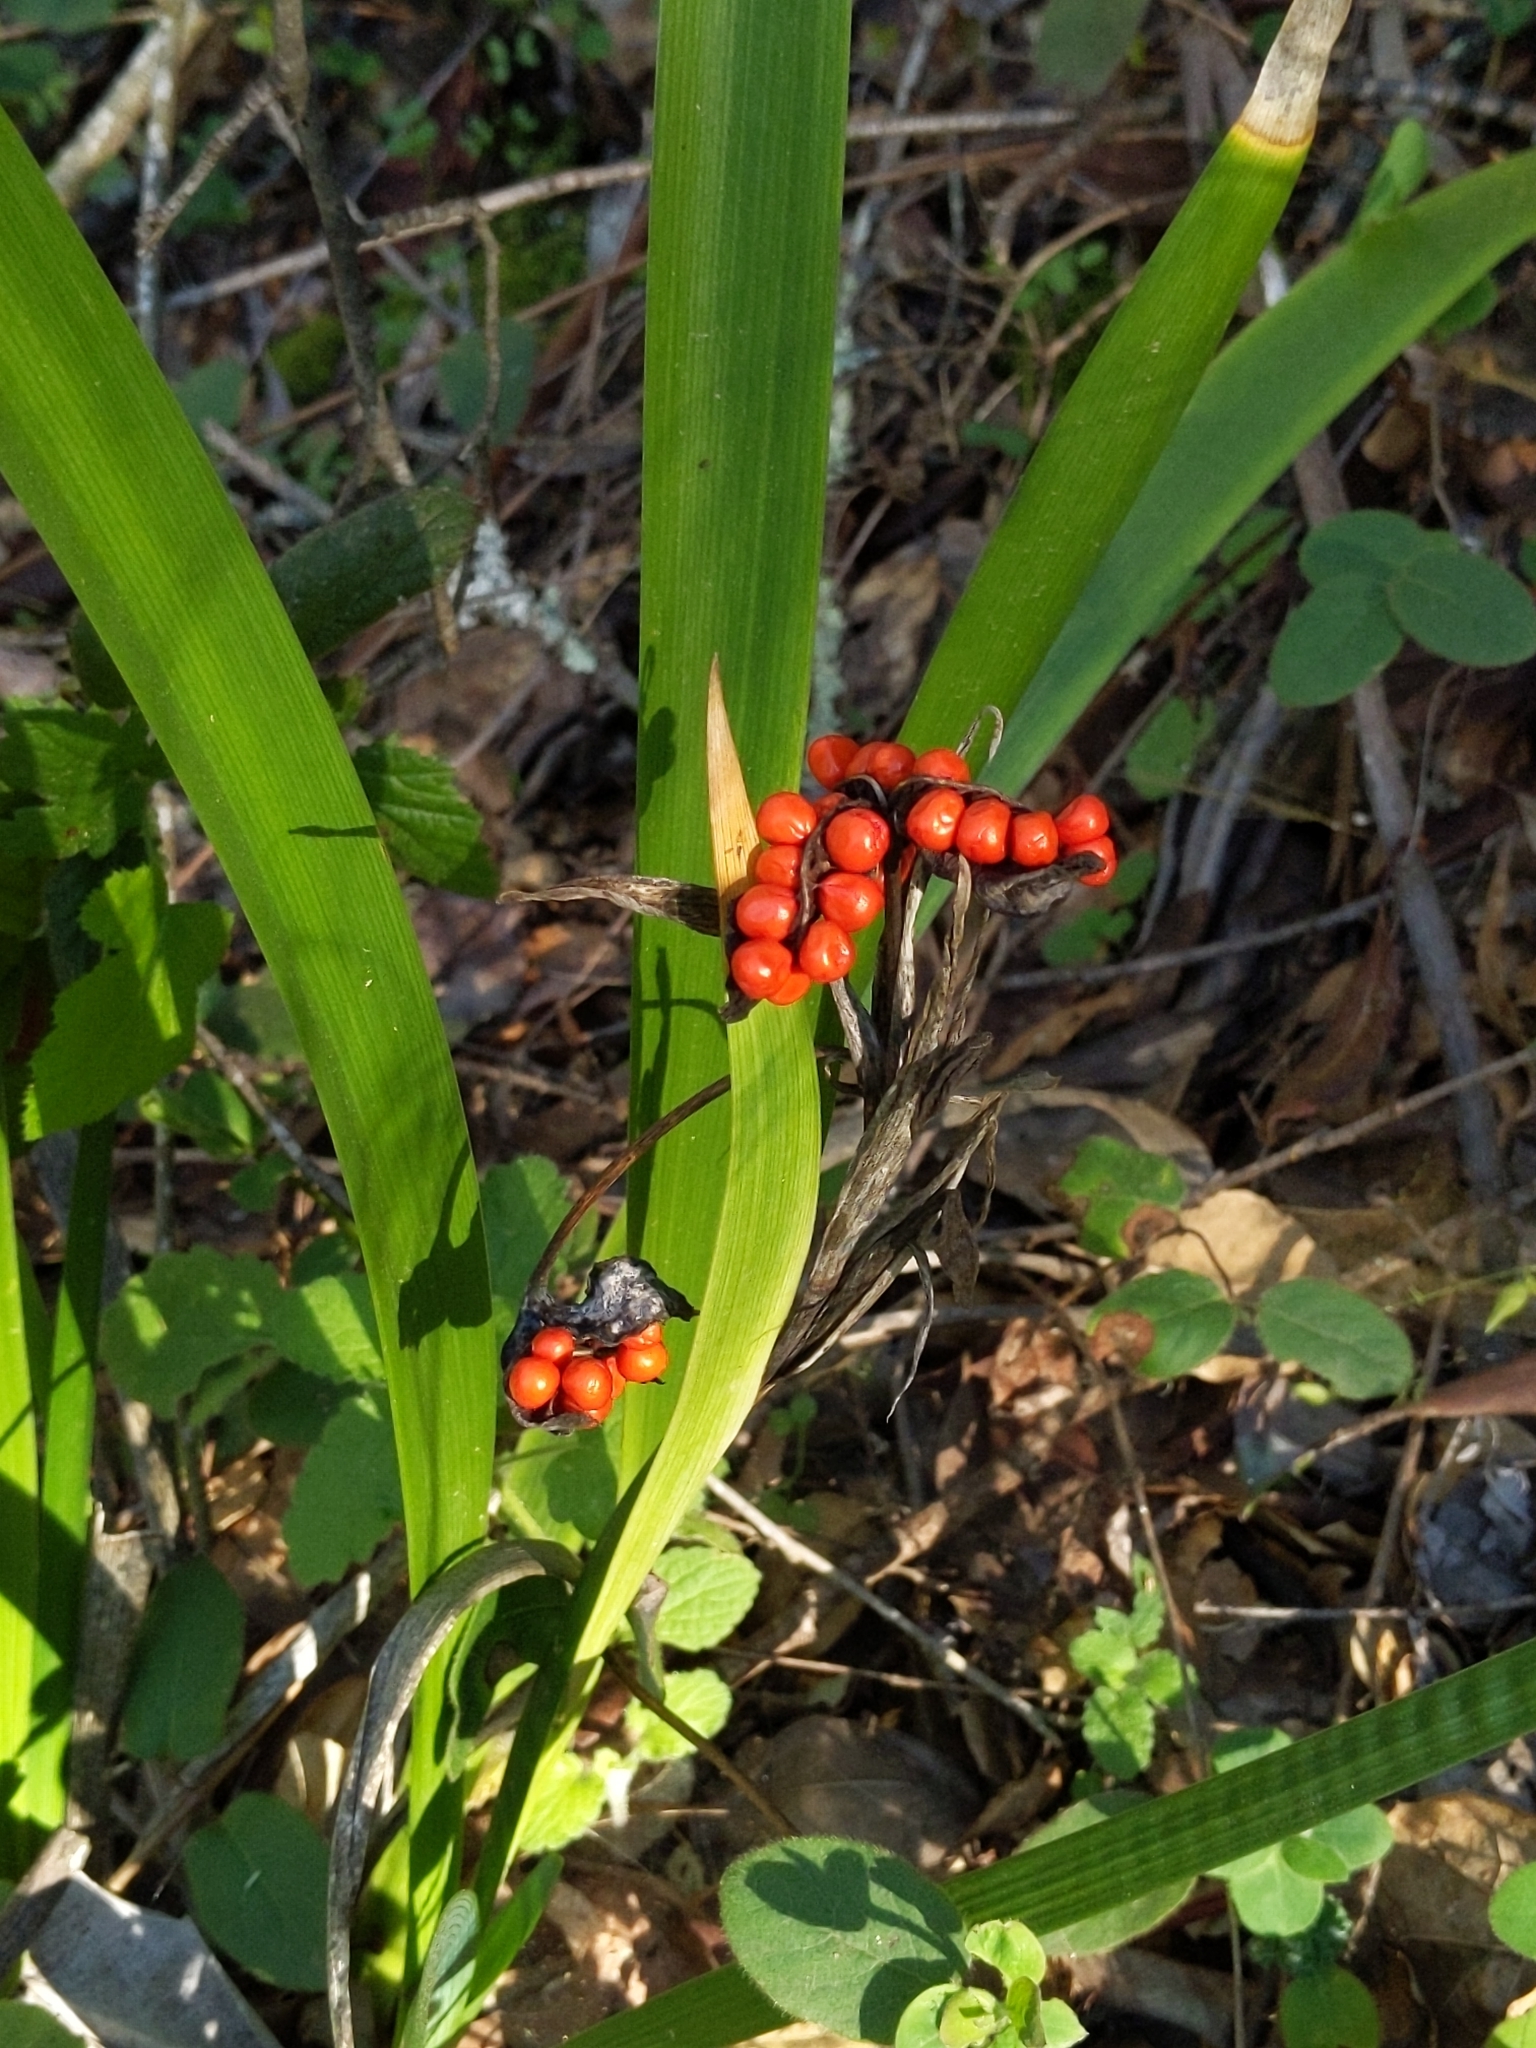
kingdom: Plantae
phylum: Tracheophyta
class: Liliopsida
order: Asparagales
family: Iridaceae
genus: Iris
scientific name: Iris foetidissima
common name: Stinking iris
